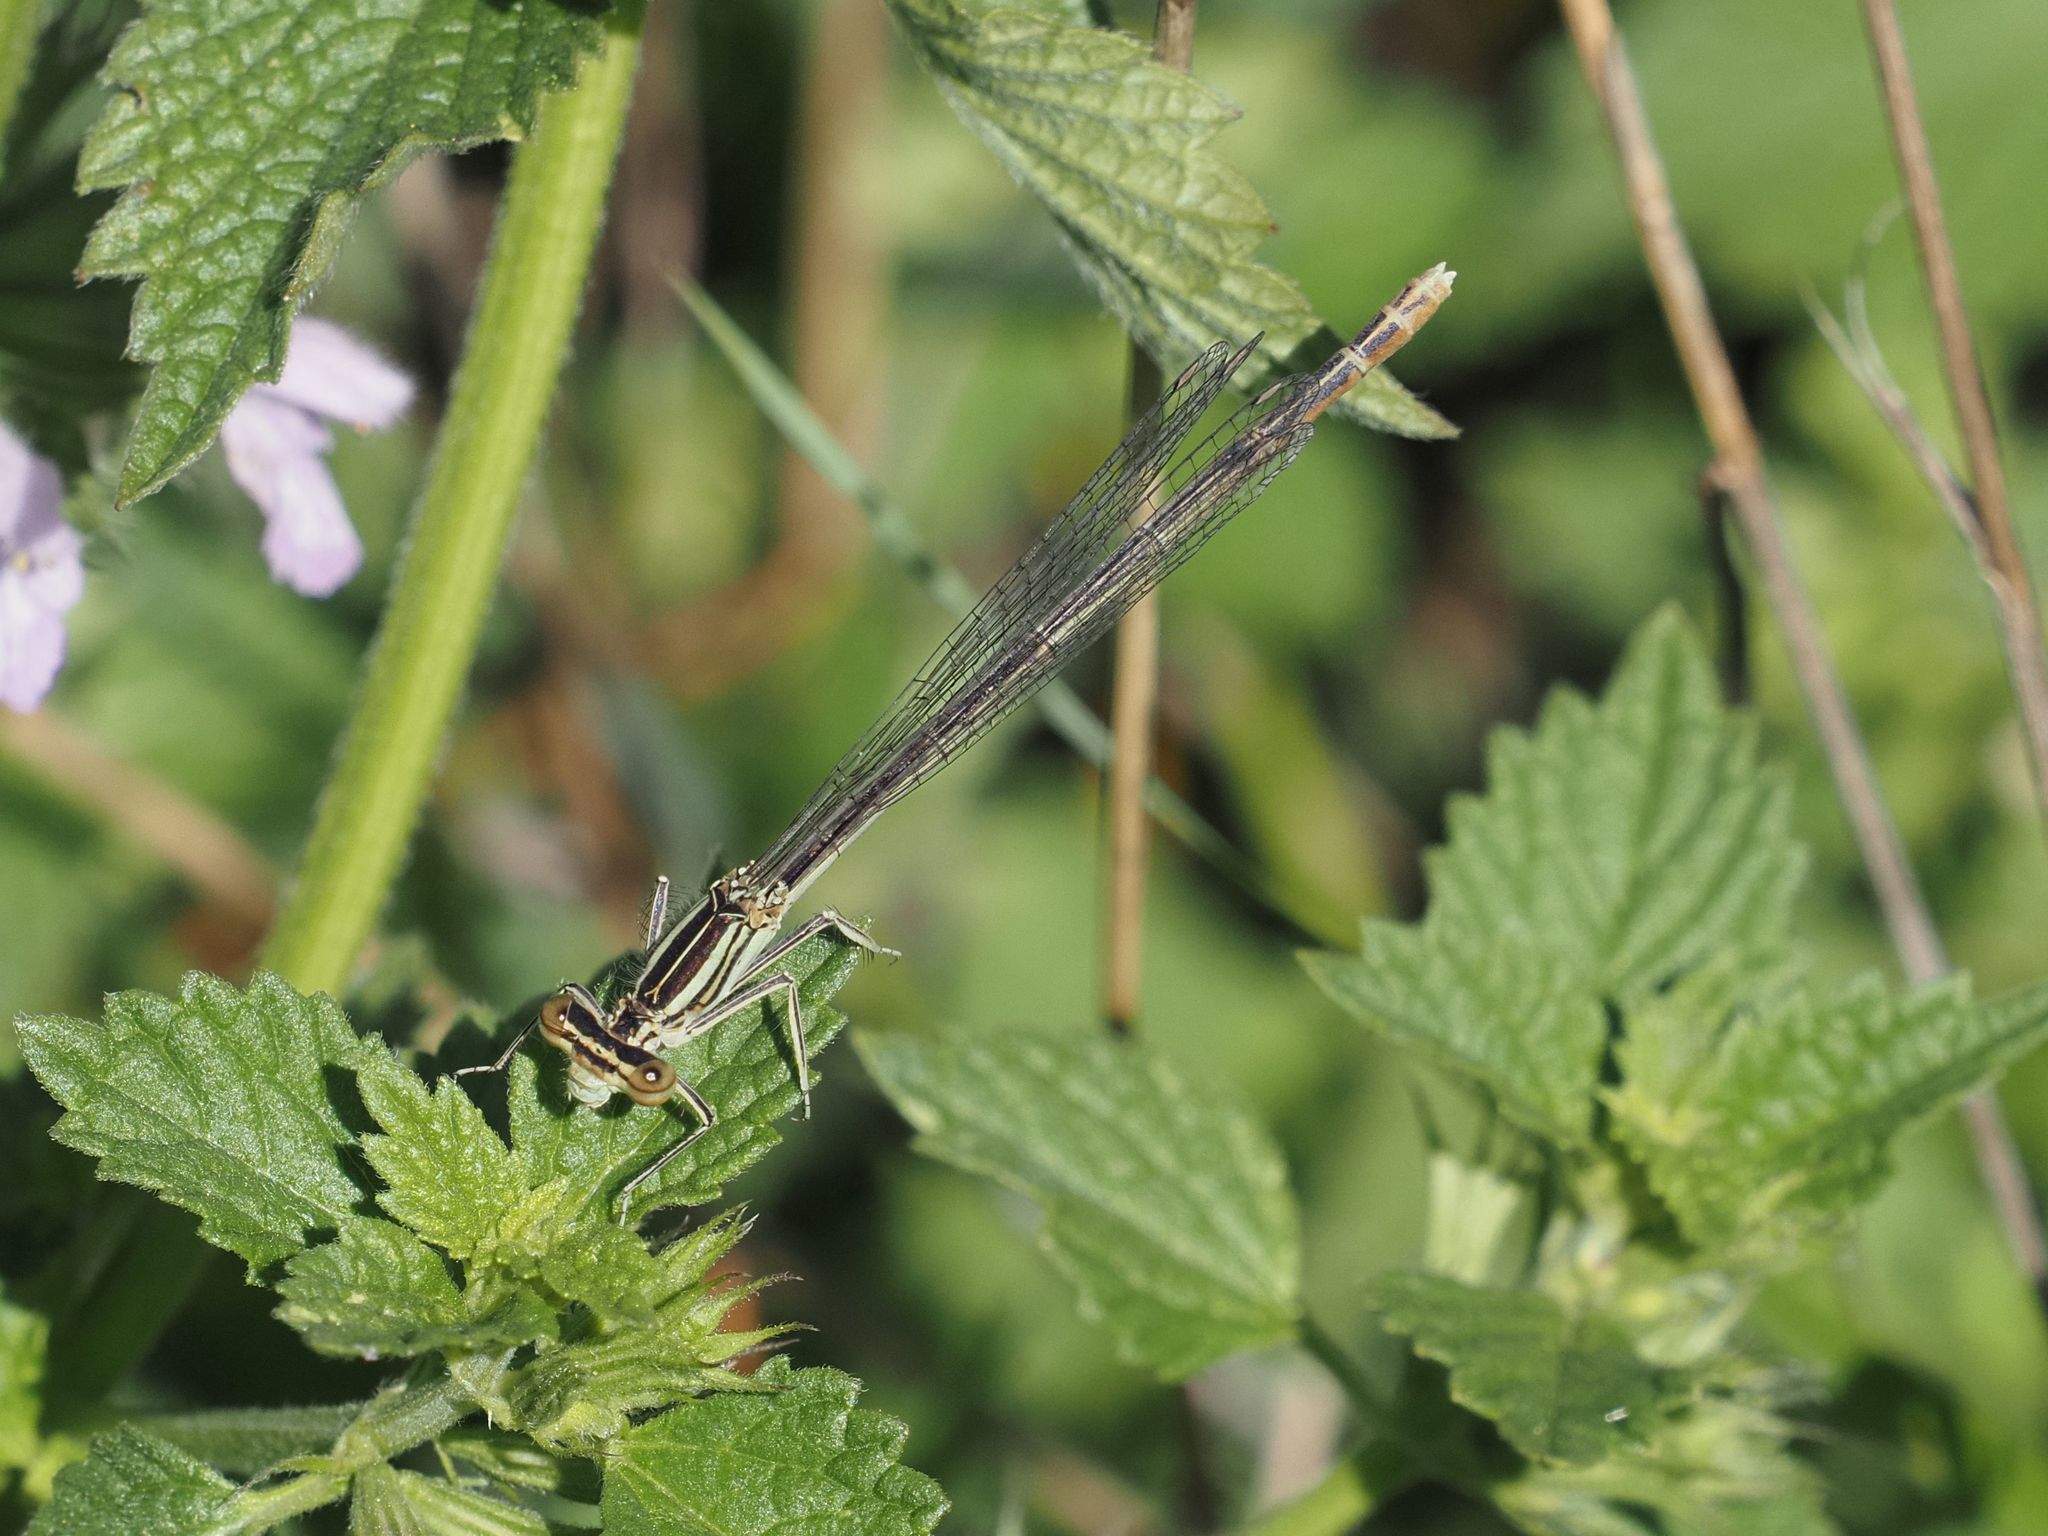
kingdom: Animalia
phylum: Arthropoda
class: Insecta
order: Odonata
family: Platycnemididae
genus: Platycnemis
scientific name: Platycnemis pennipes
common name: White-legged damselfly
